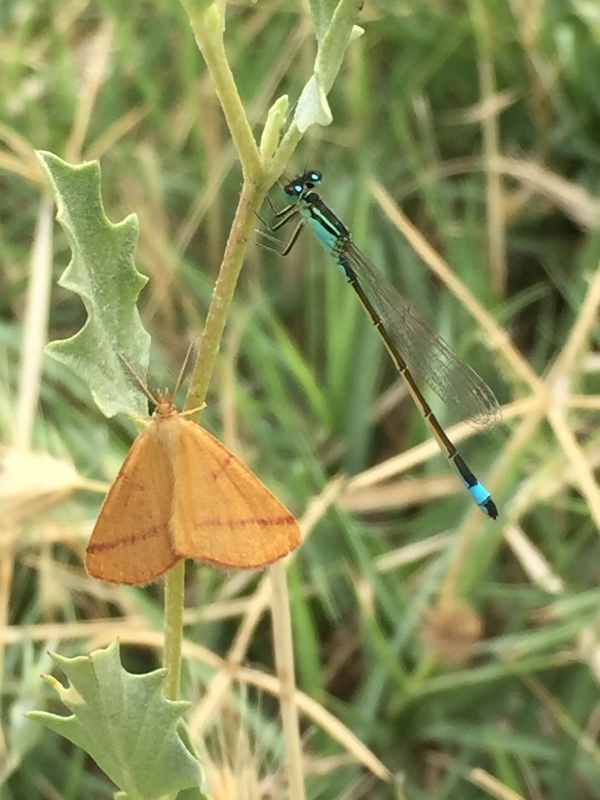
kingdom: Animalia
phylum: Arthropoda
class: Insecta
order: Lepidoptera
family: Geometridae
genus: Lythria
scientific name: Lythria purpuraria
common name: Purple-barred yellow
